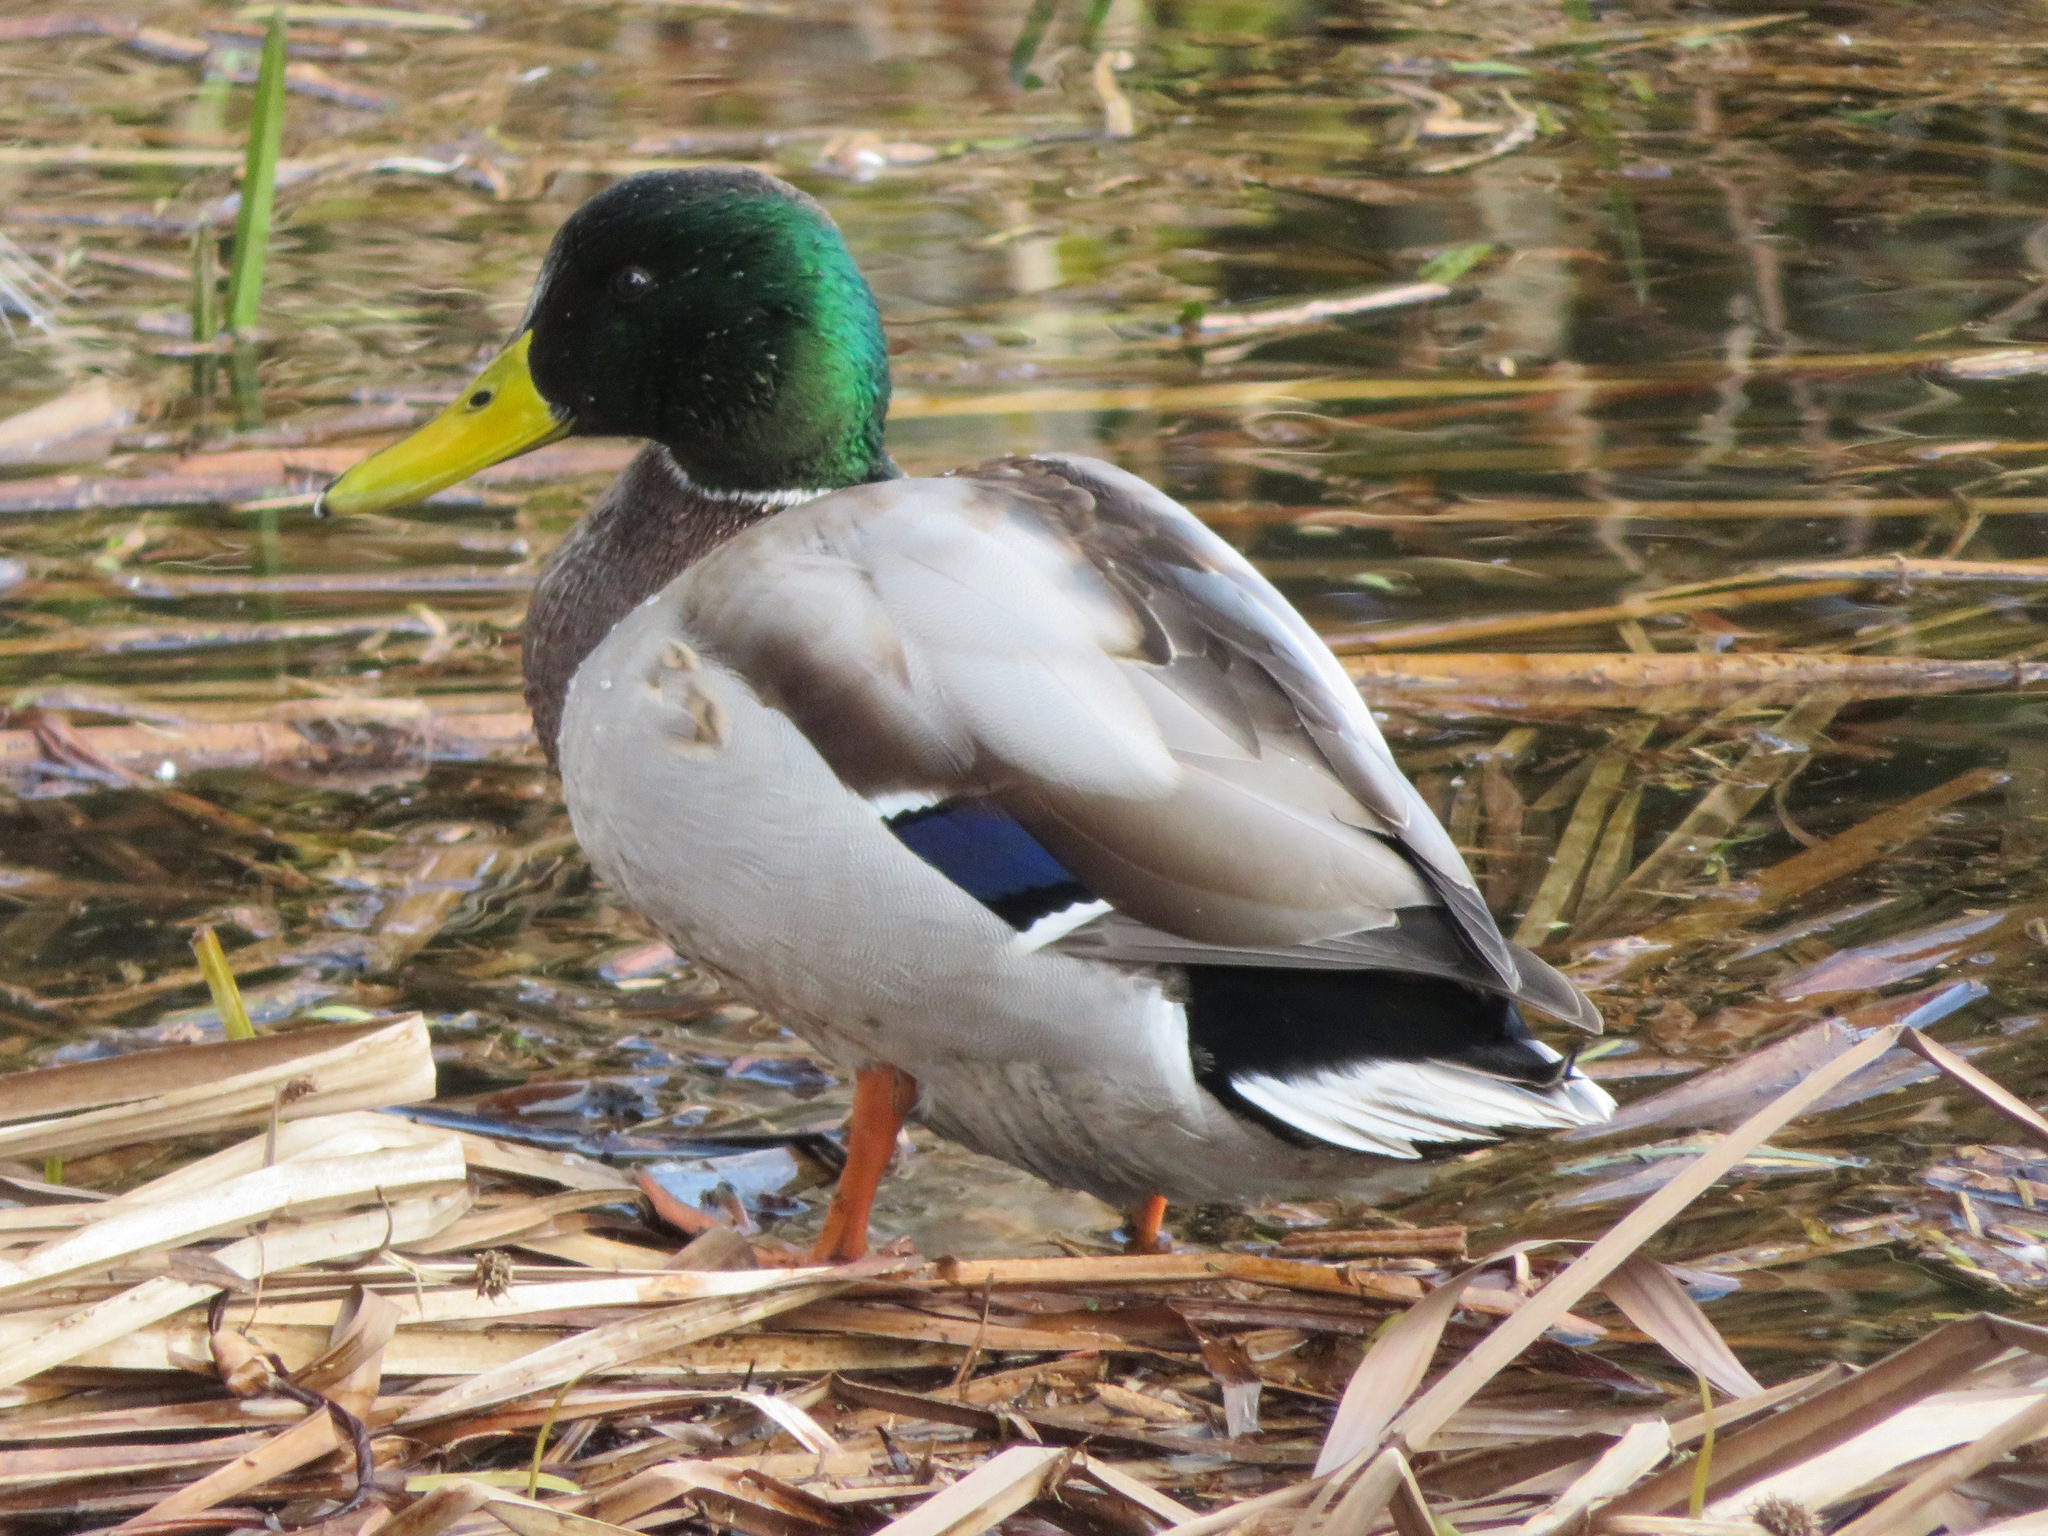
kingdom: Animalia
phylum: Chordata
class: Aves
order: Anseriformes
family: Anatidae
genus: Anas
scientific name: Anas platyrhynchos
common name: Mallard
